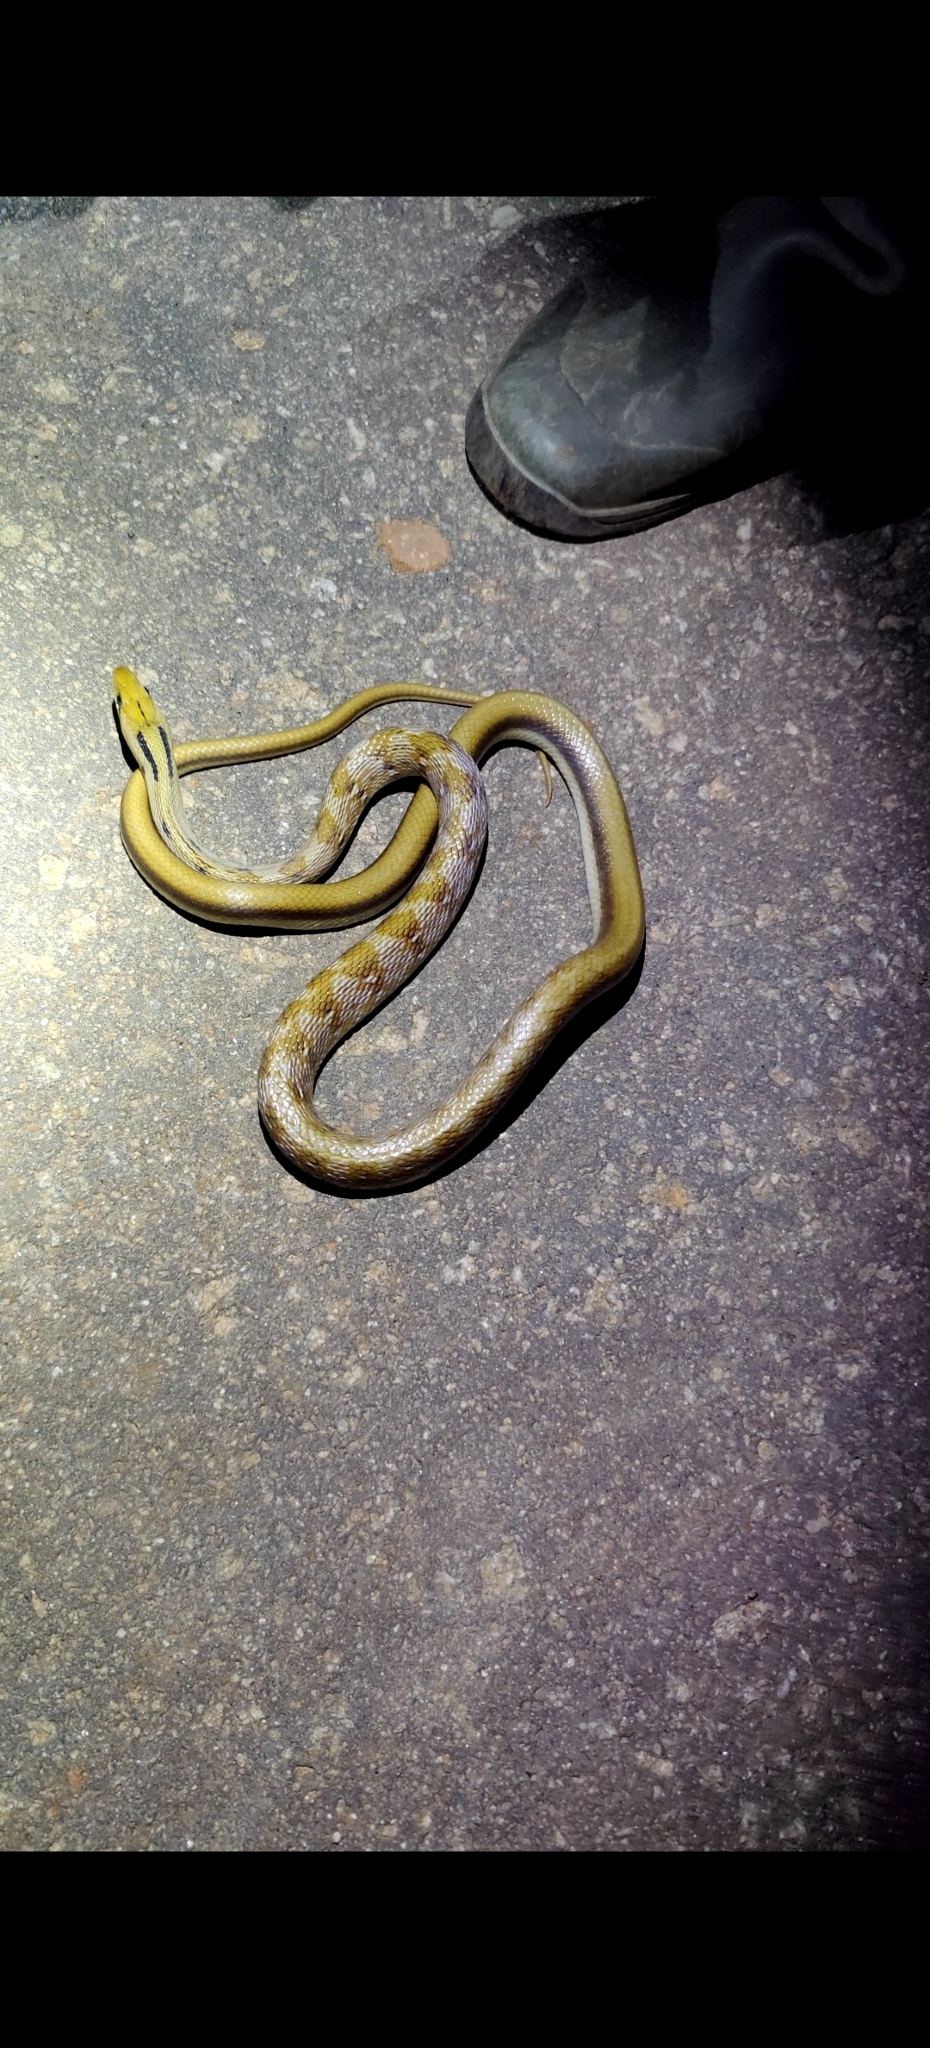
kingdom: Animalia
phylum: Chordata
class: Squamata
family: Colubridae
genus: Coelognathus
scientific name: Coelognathus helena
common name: Trinket snake
